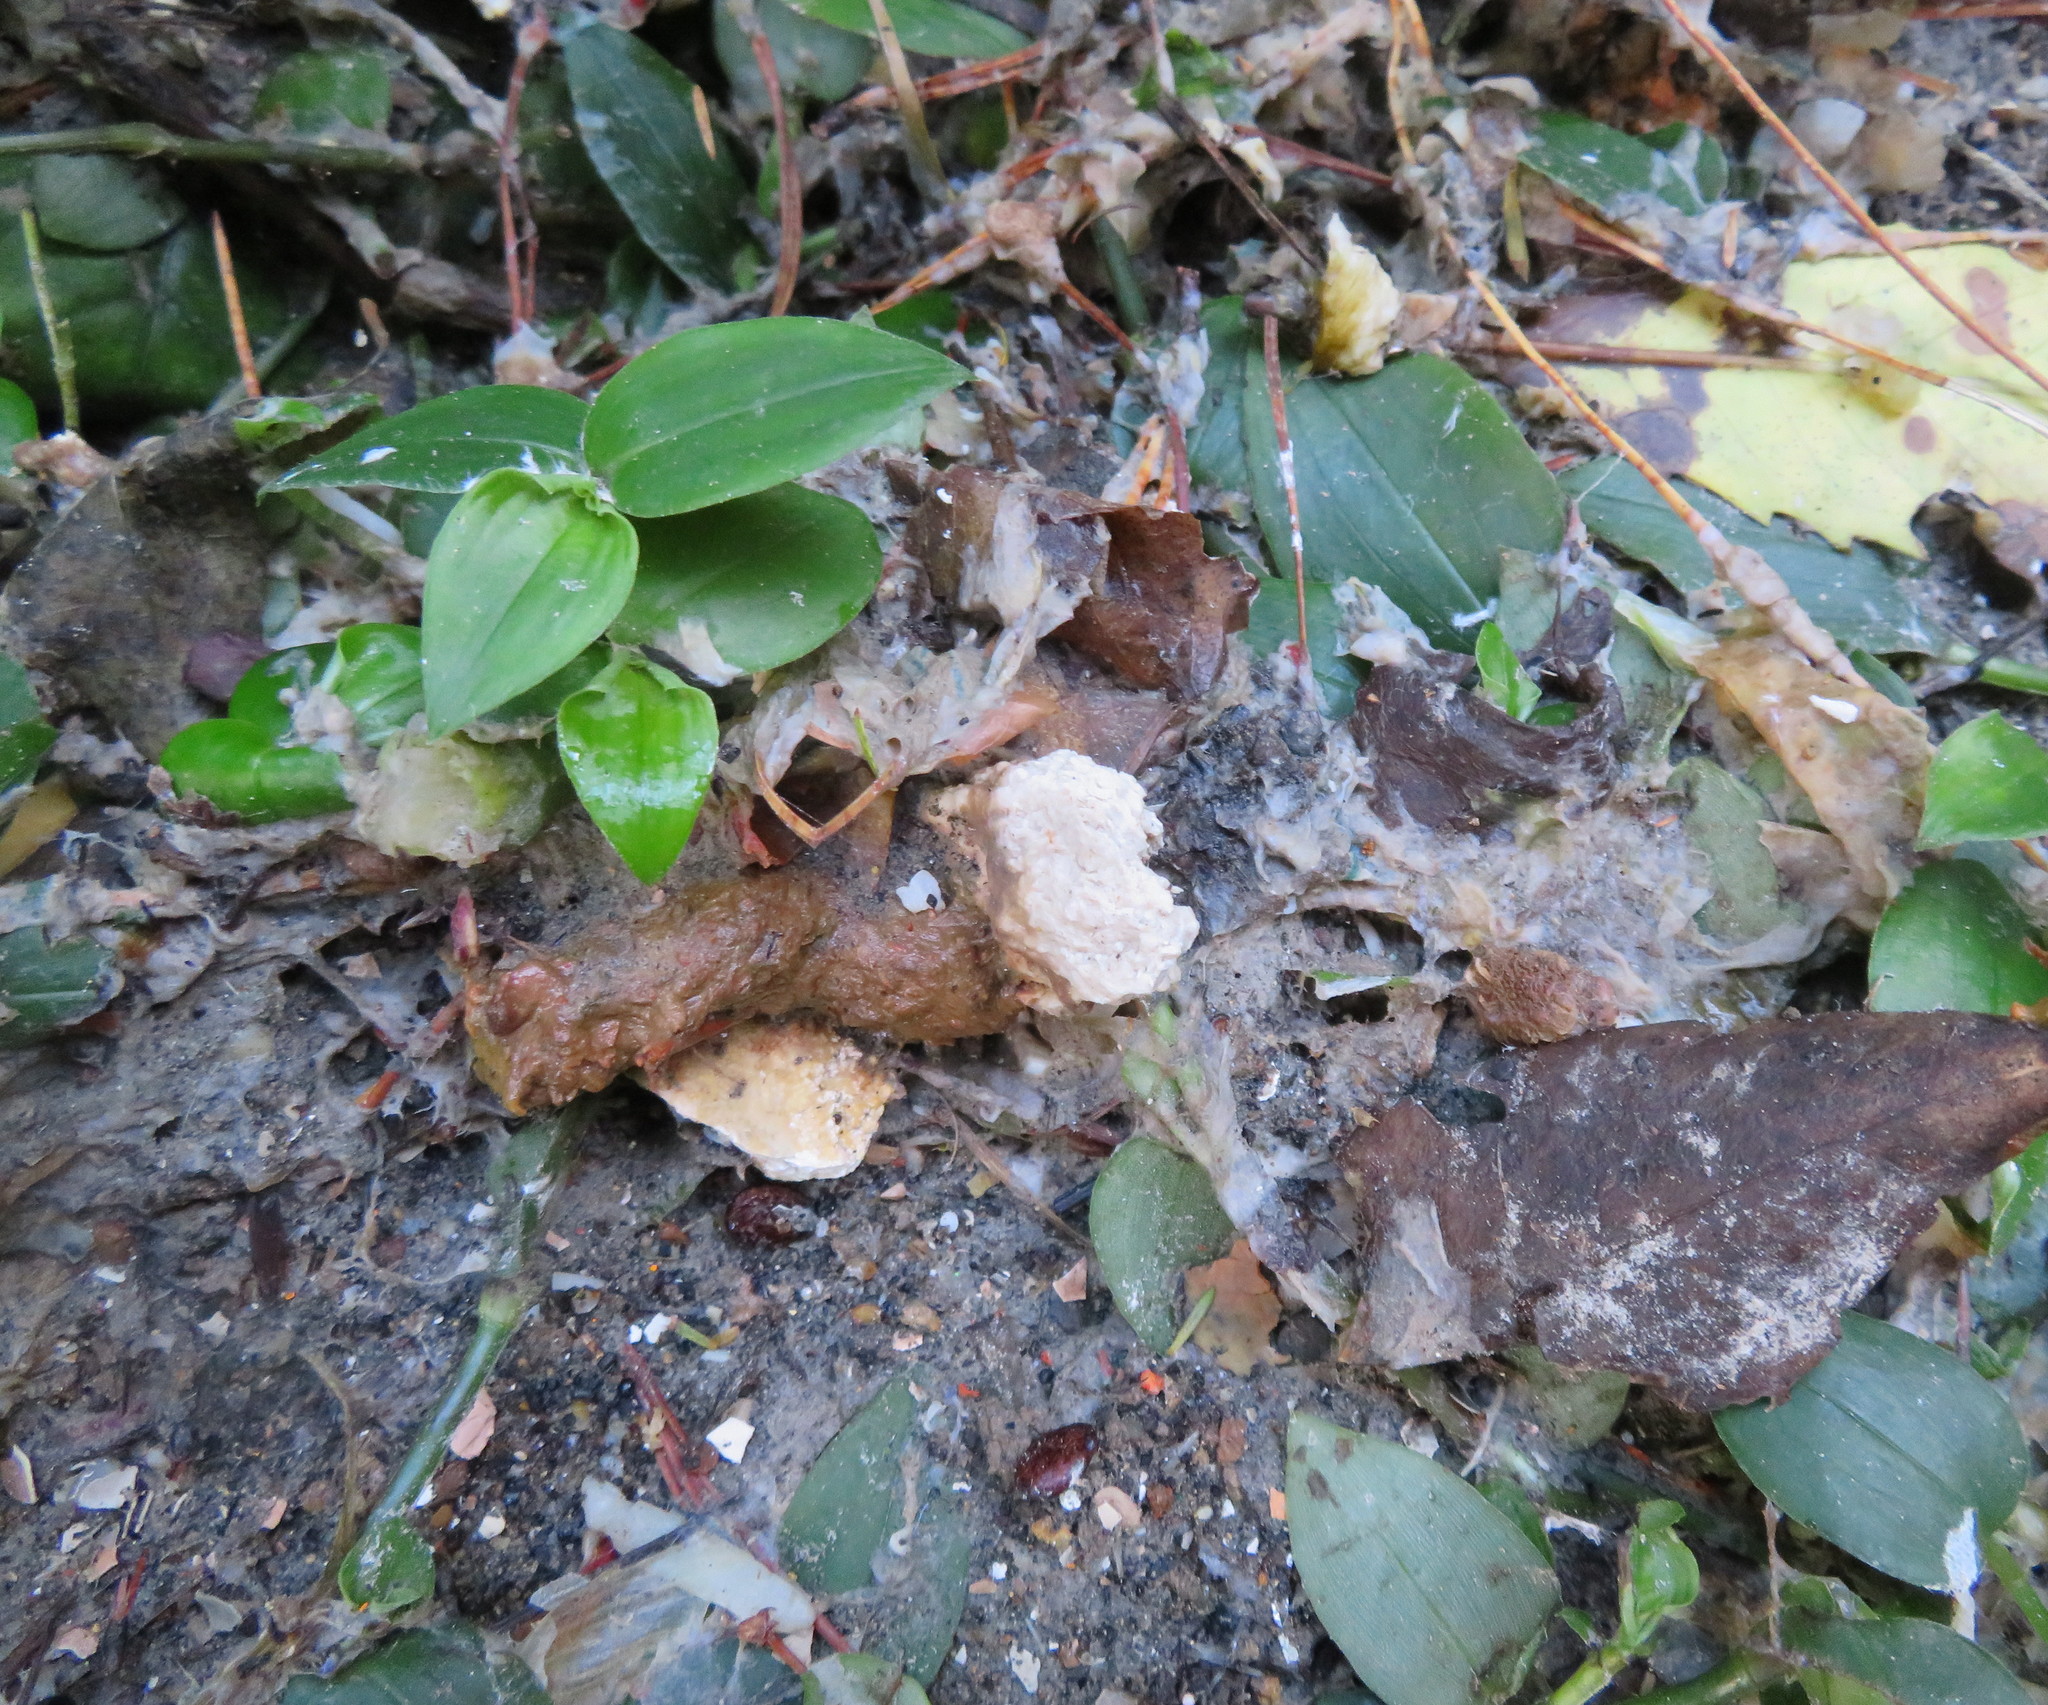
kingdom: Plantae
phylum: Tracheophyta
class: Liliopsida
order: Commelinales
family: Commelinaceae
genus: Tradescantia
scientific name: Tradescantia fluminensis
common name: Wandering-jew
